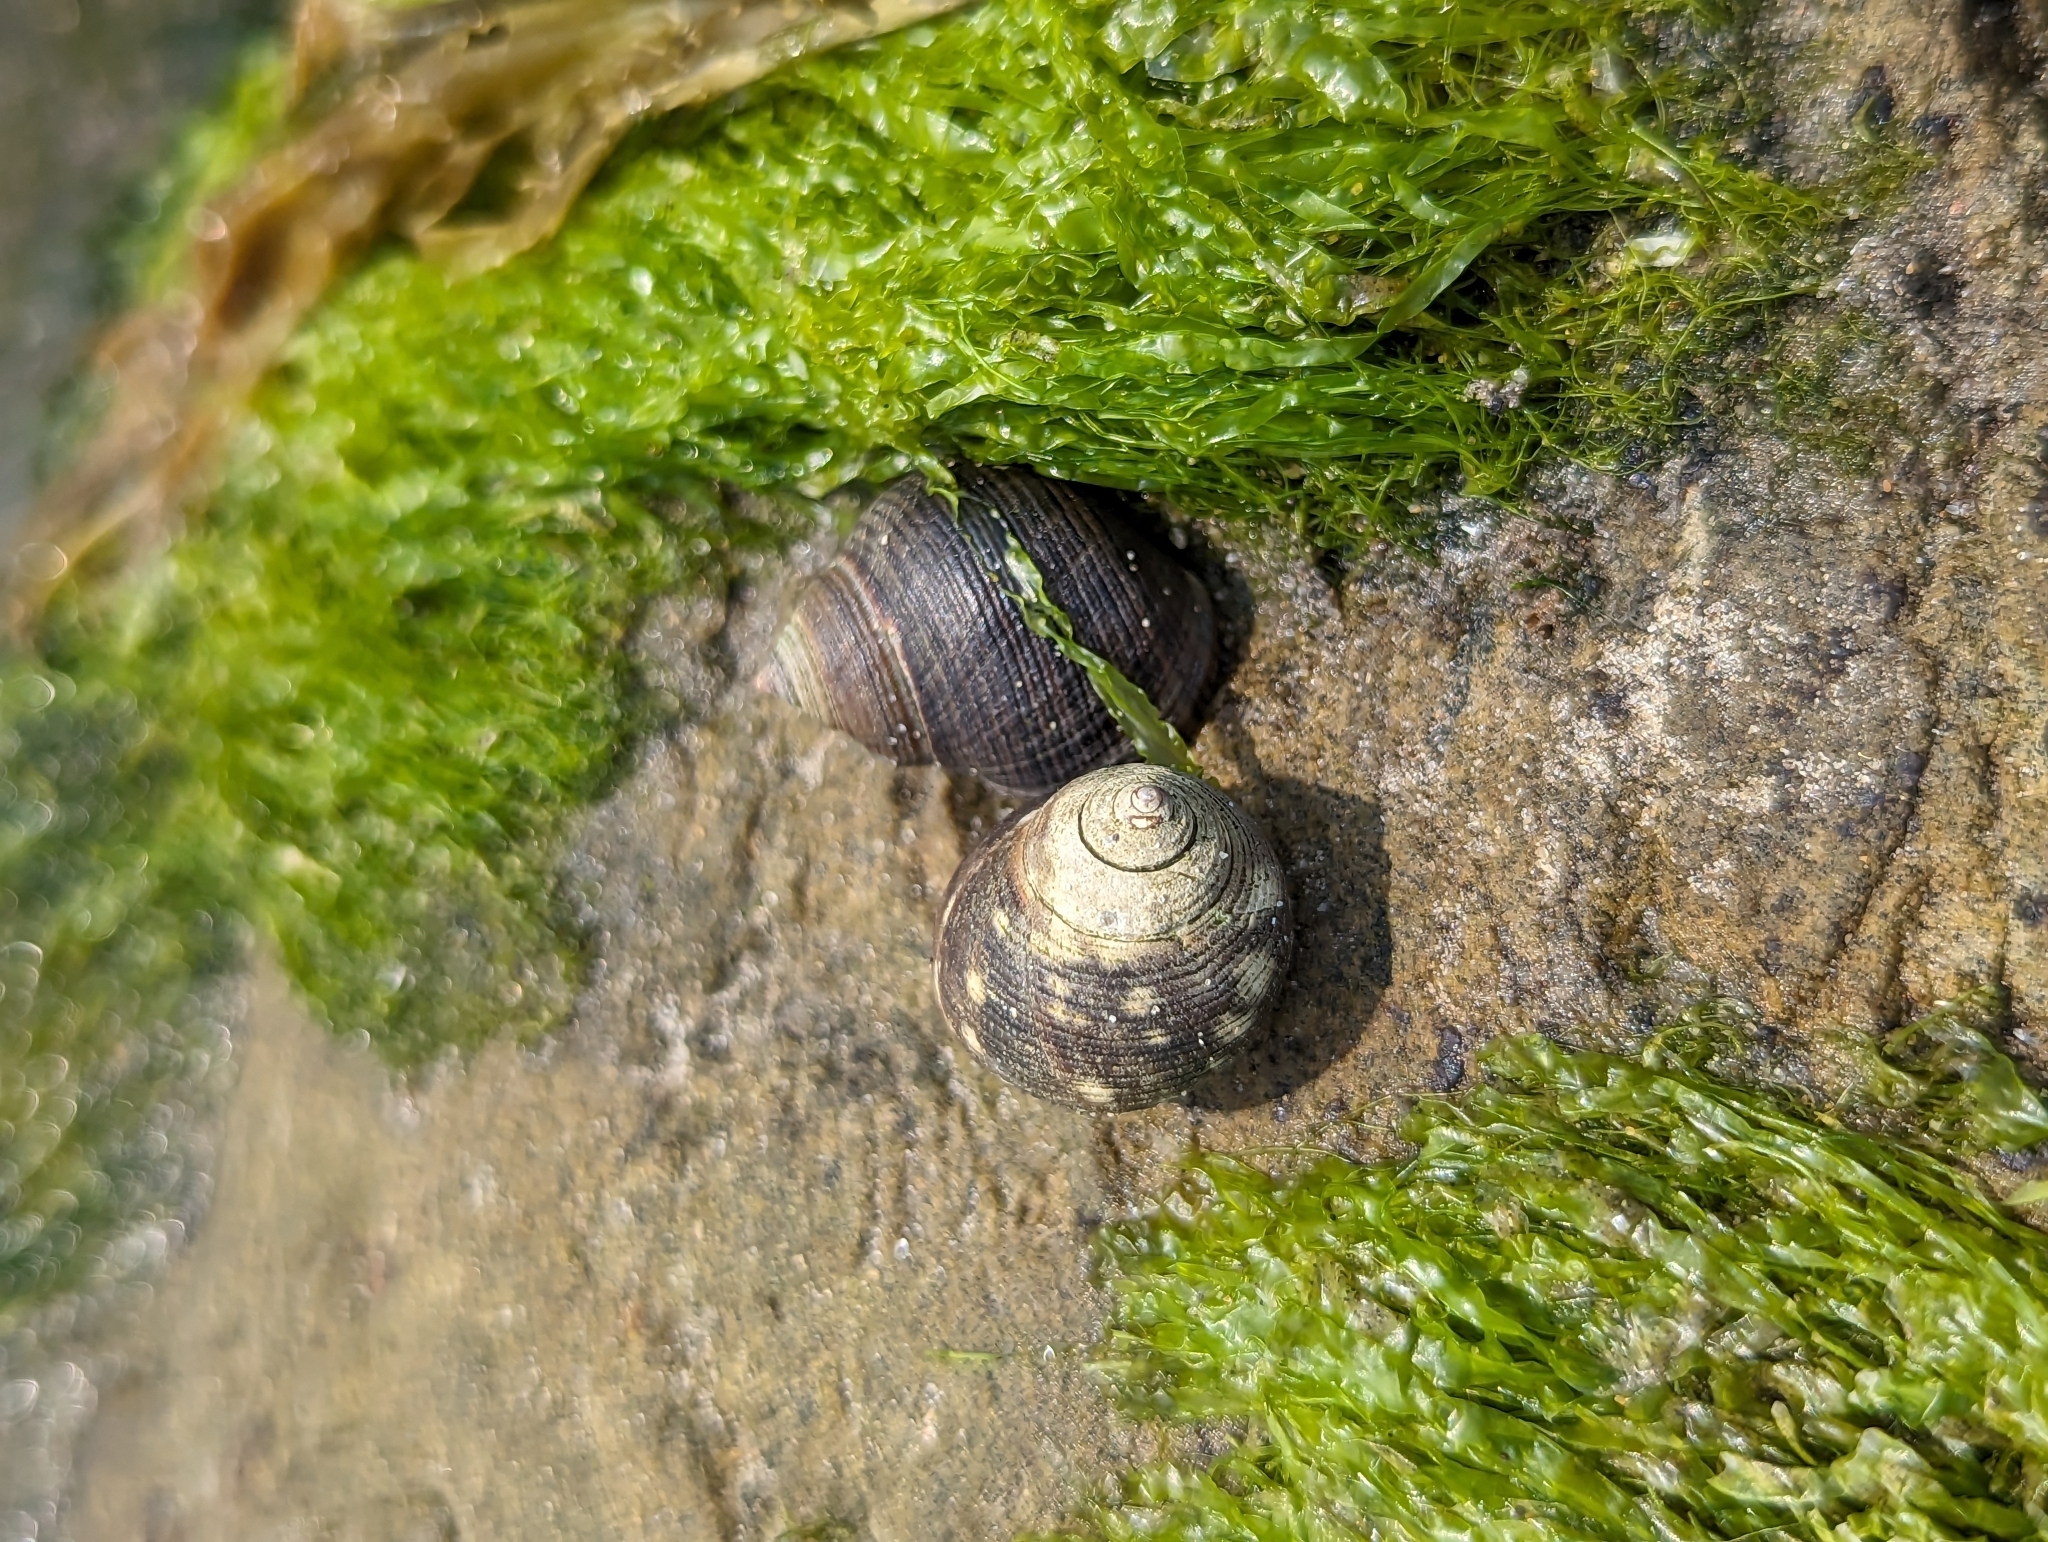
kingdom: Animalia
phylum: Mollusca
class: Gastropoda
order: Littorinimorpha
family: Littorinidae
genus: Littorina
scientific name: Littorina littorea
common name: Common periwinkle
